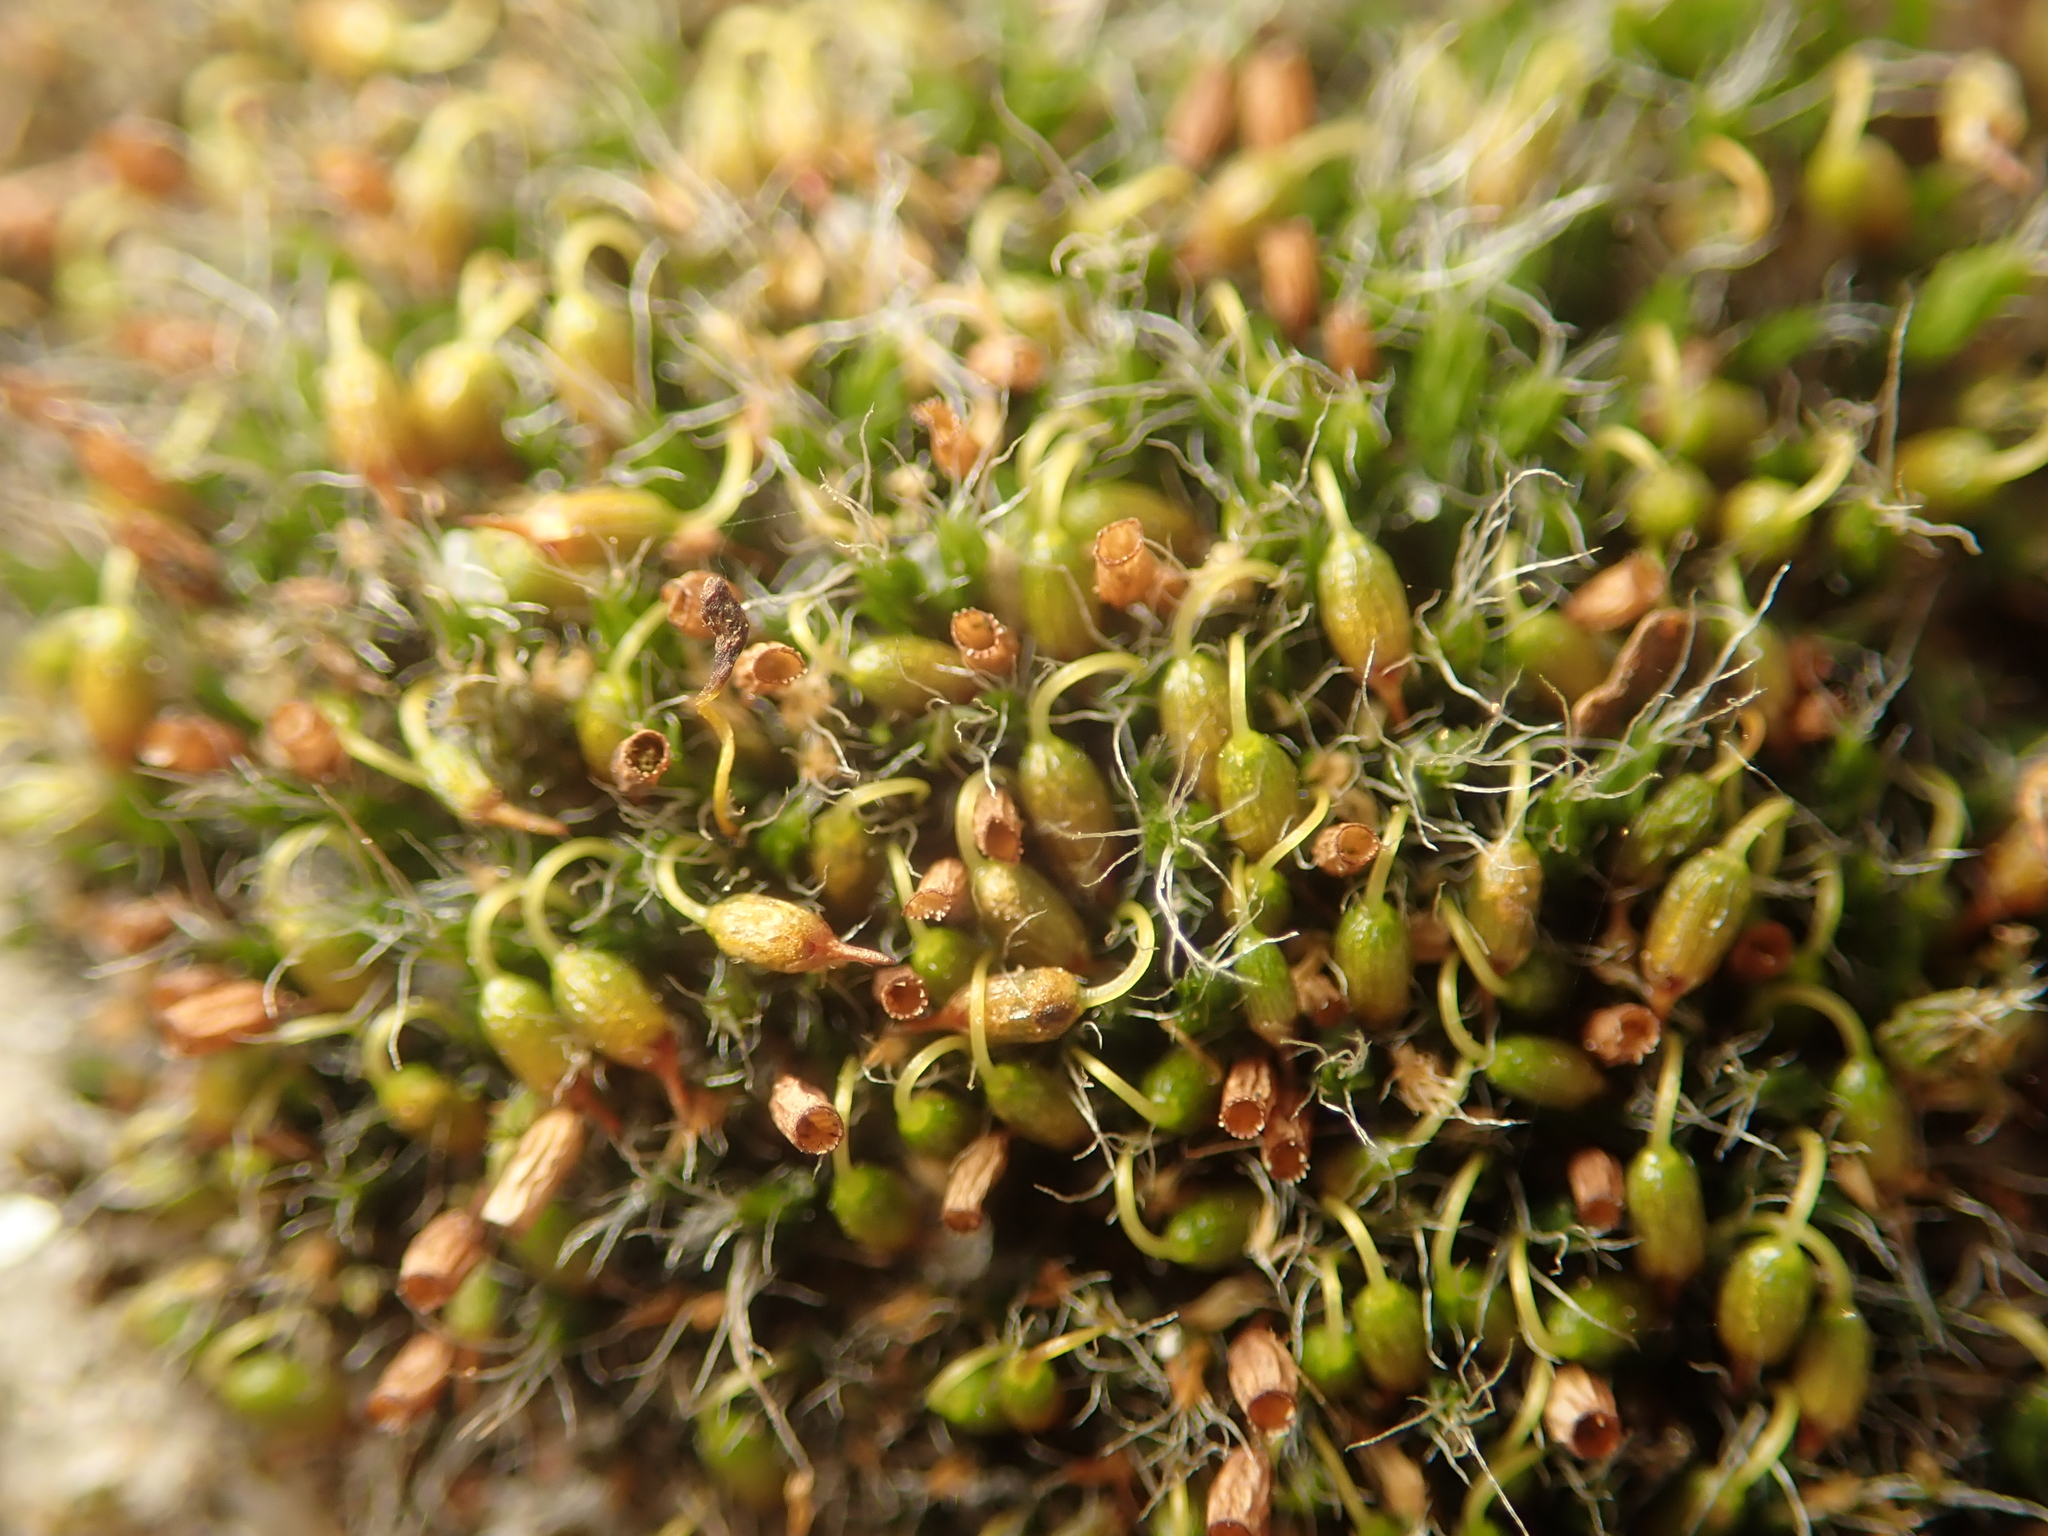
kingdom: Plantae
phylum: Bryophyta
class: Bryopsida
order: Grimmiales
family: Grimmiaceae
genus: Grimmia
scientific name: Grimmia pulvinata
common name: Grey-cushioned grimmia
